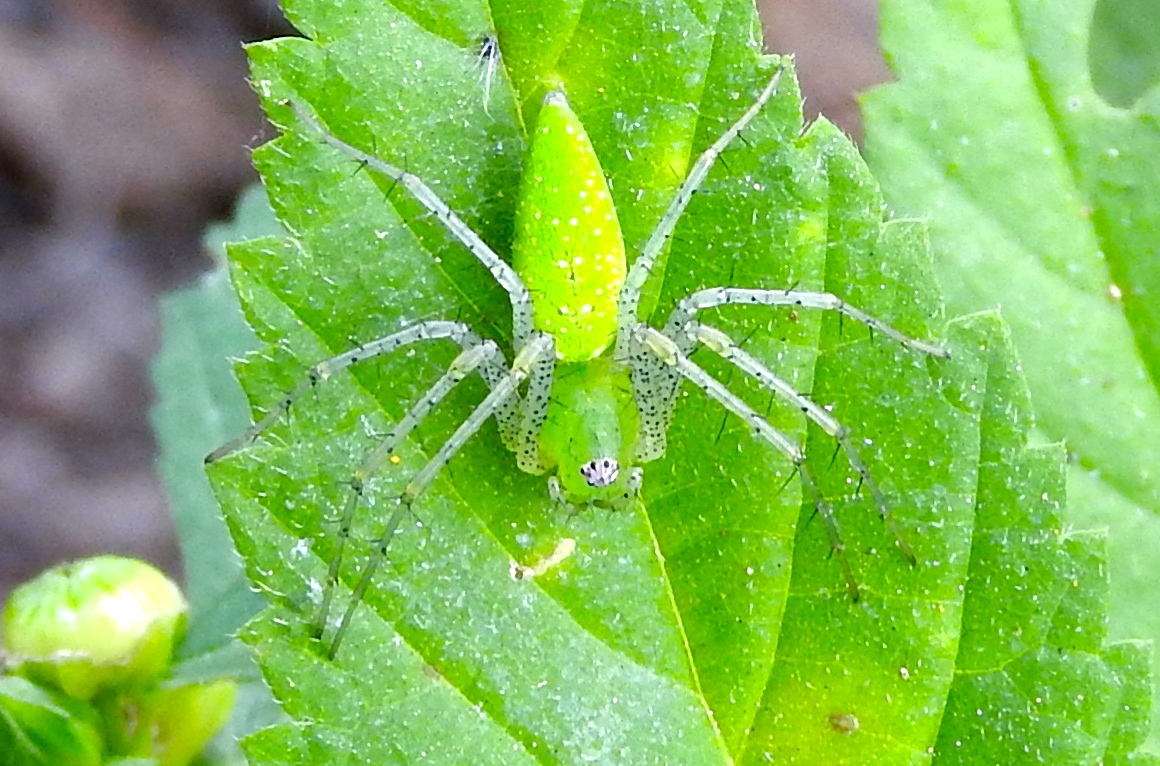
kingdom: Animalia
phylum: Arthropoda
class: Arachnida
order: Araneae
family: Oxyopidae
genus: Peucetia
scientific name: Peucetia
